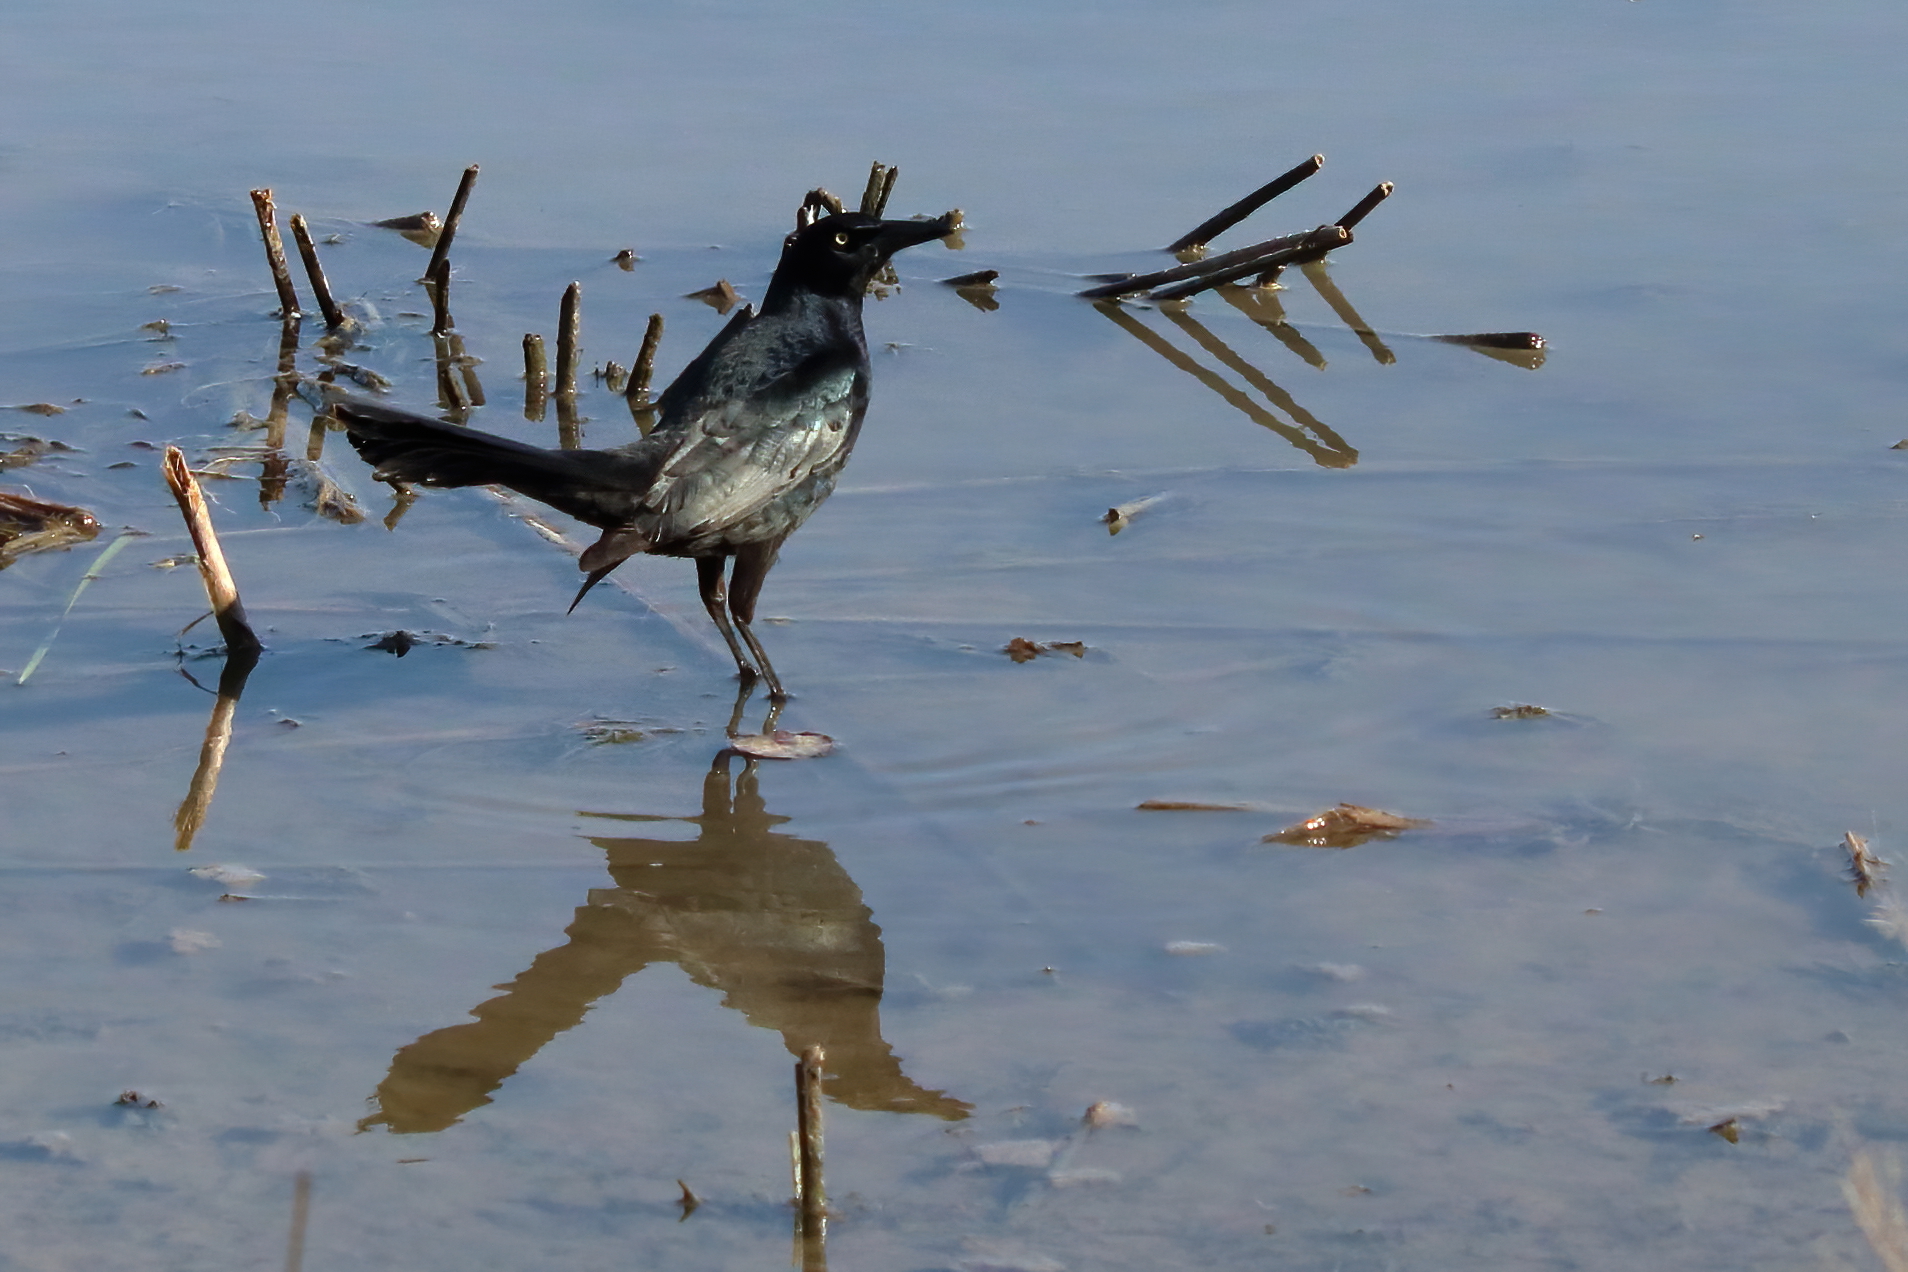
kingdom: Animalia
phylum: Chordata
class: Aves
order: Passeriformes
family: Icteridae
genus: Quiscalus
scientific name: Quiscalus mexicanus
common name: Great-tailed grackle
